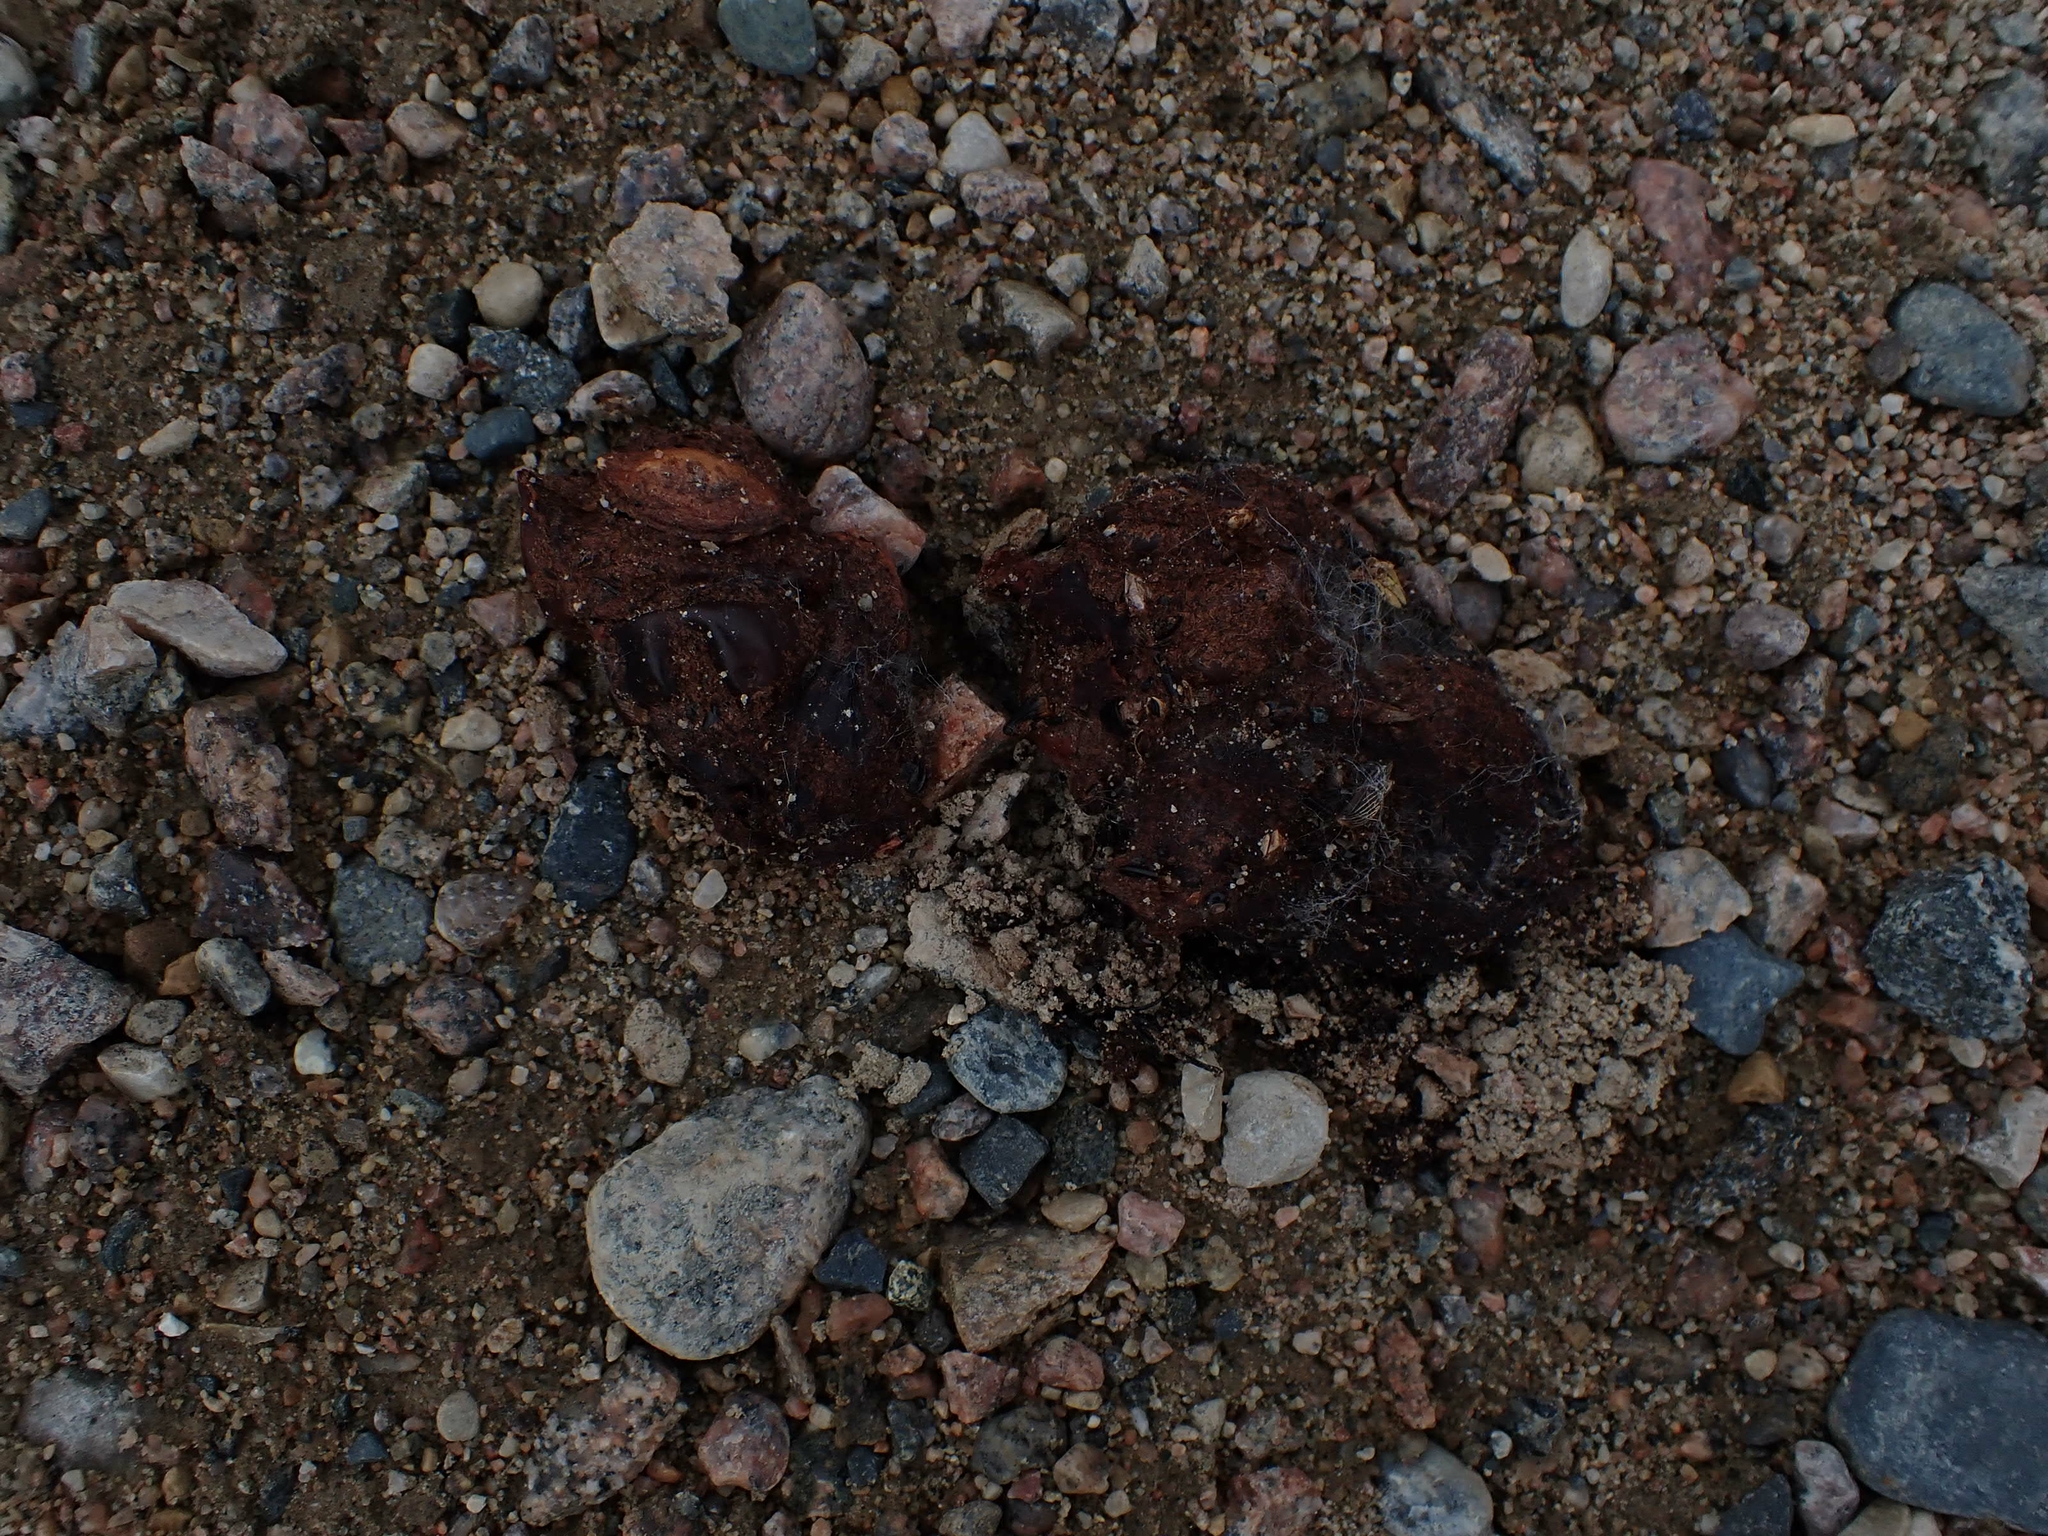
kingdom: Animalia
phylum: Chordata
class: Mammalia
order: Carnivora
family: Ursidae
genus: Ursus
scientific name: Ursus americanus
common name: American black bear
